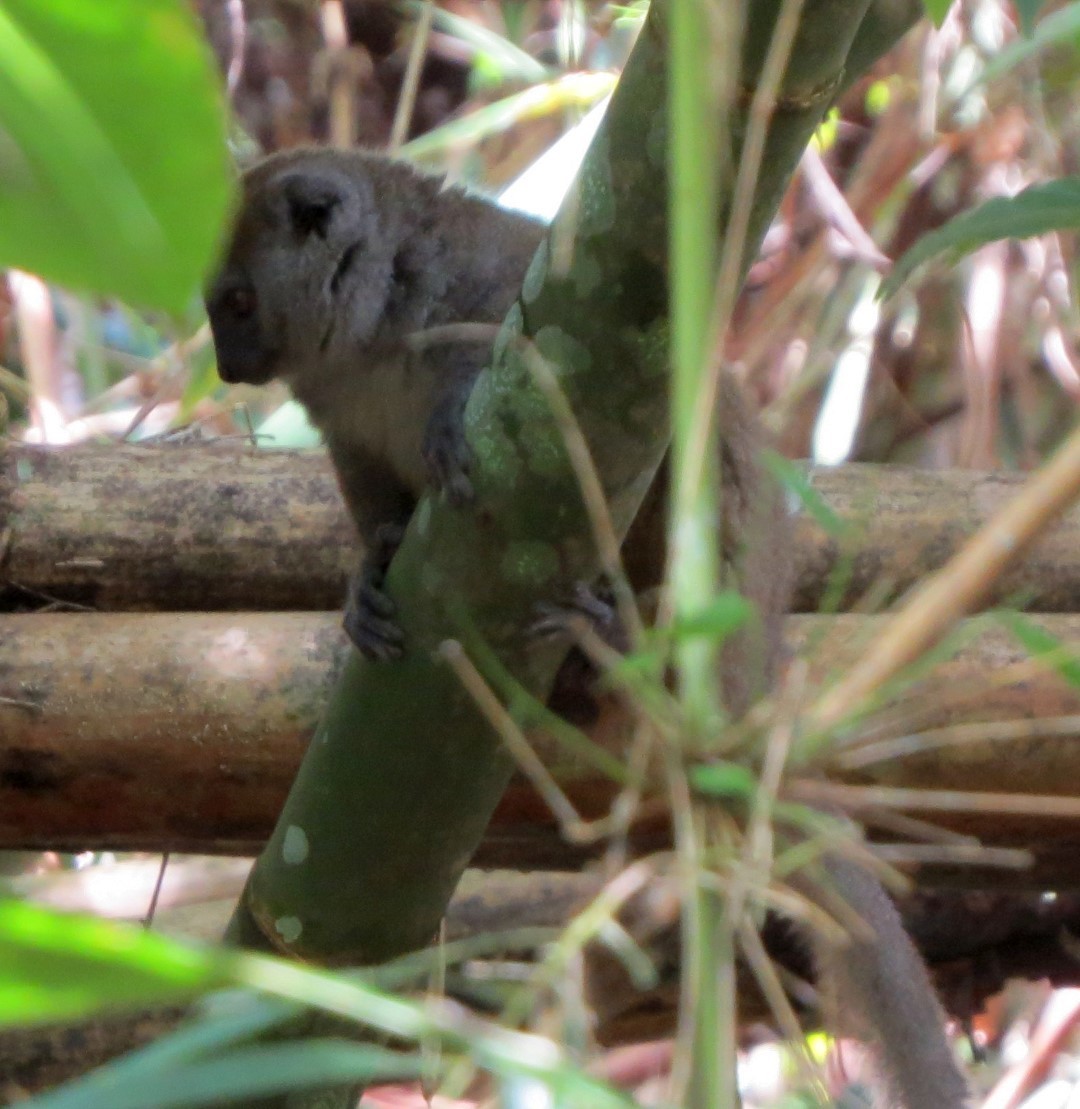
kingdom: Animalia
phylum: Chordata
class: Mammalia
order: Primates
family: Lemuridae
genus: Hapalemur
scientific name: Hapalemur occidentalis
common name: Sambirano bamboo lemur
